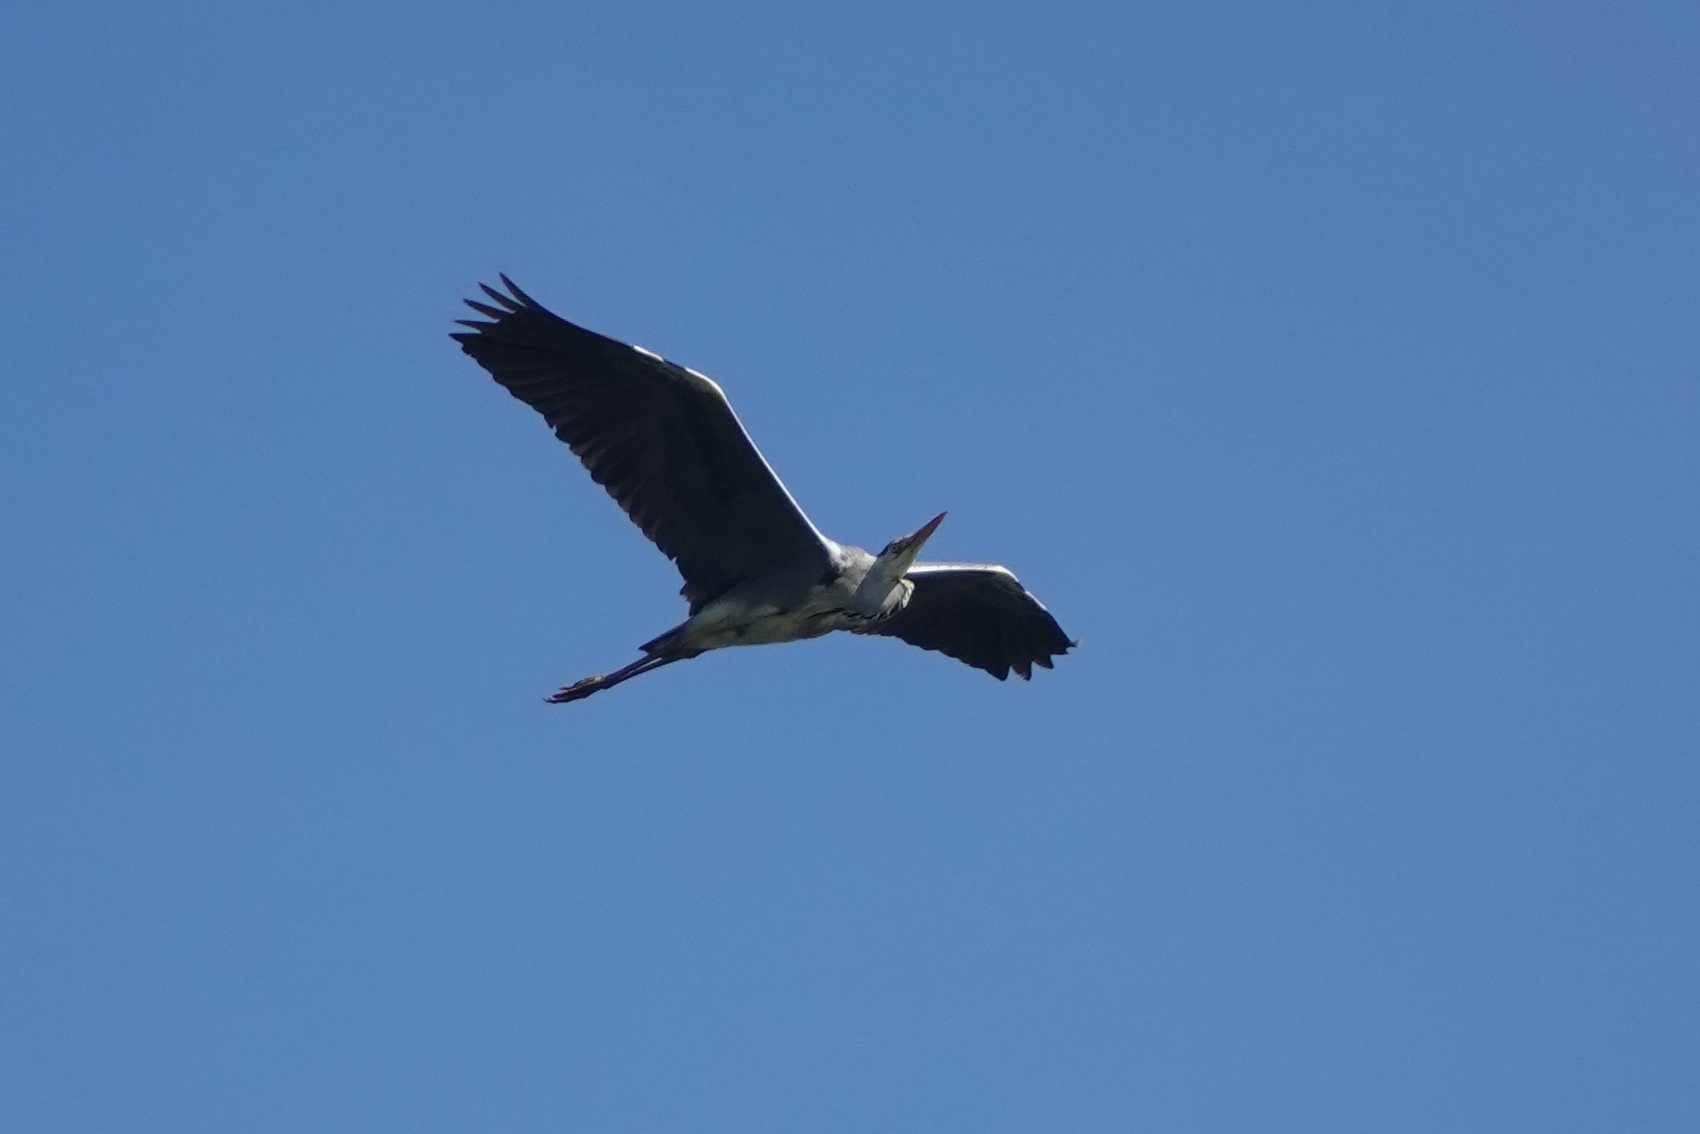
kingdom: Animalia
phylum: Chordata
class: Aves
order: Pelecaniformes
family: Ardeidae
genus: Ardea
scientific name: Ardea cinerea
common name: Grey heron
